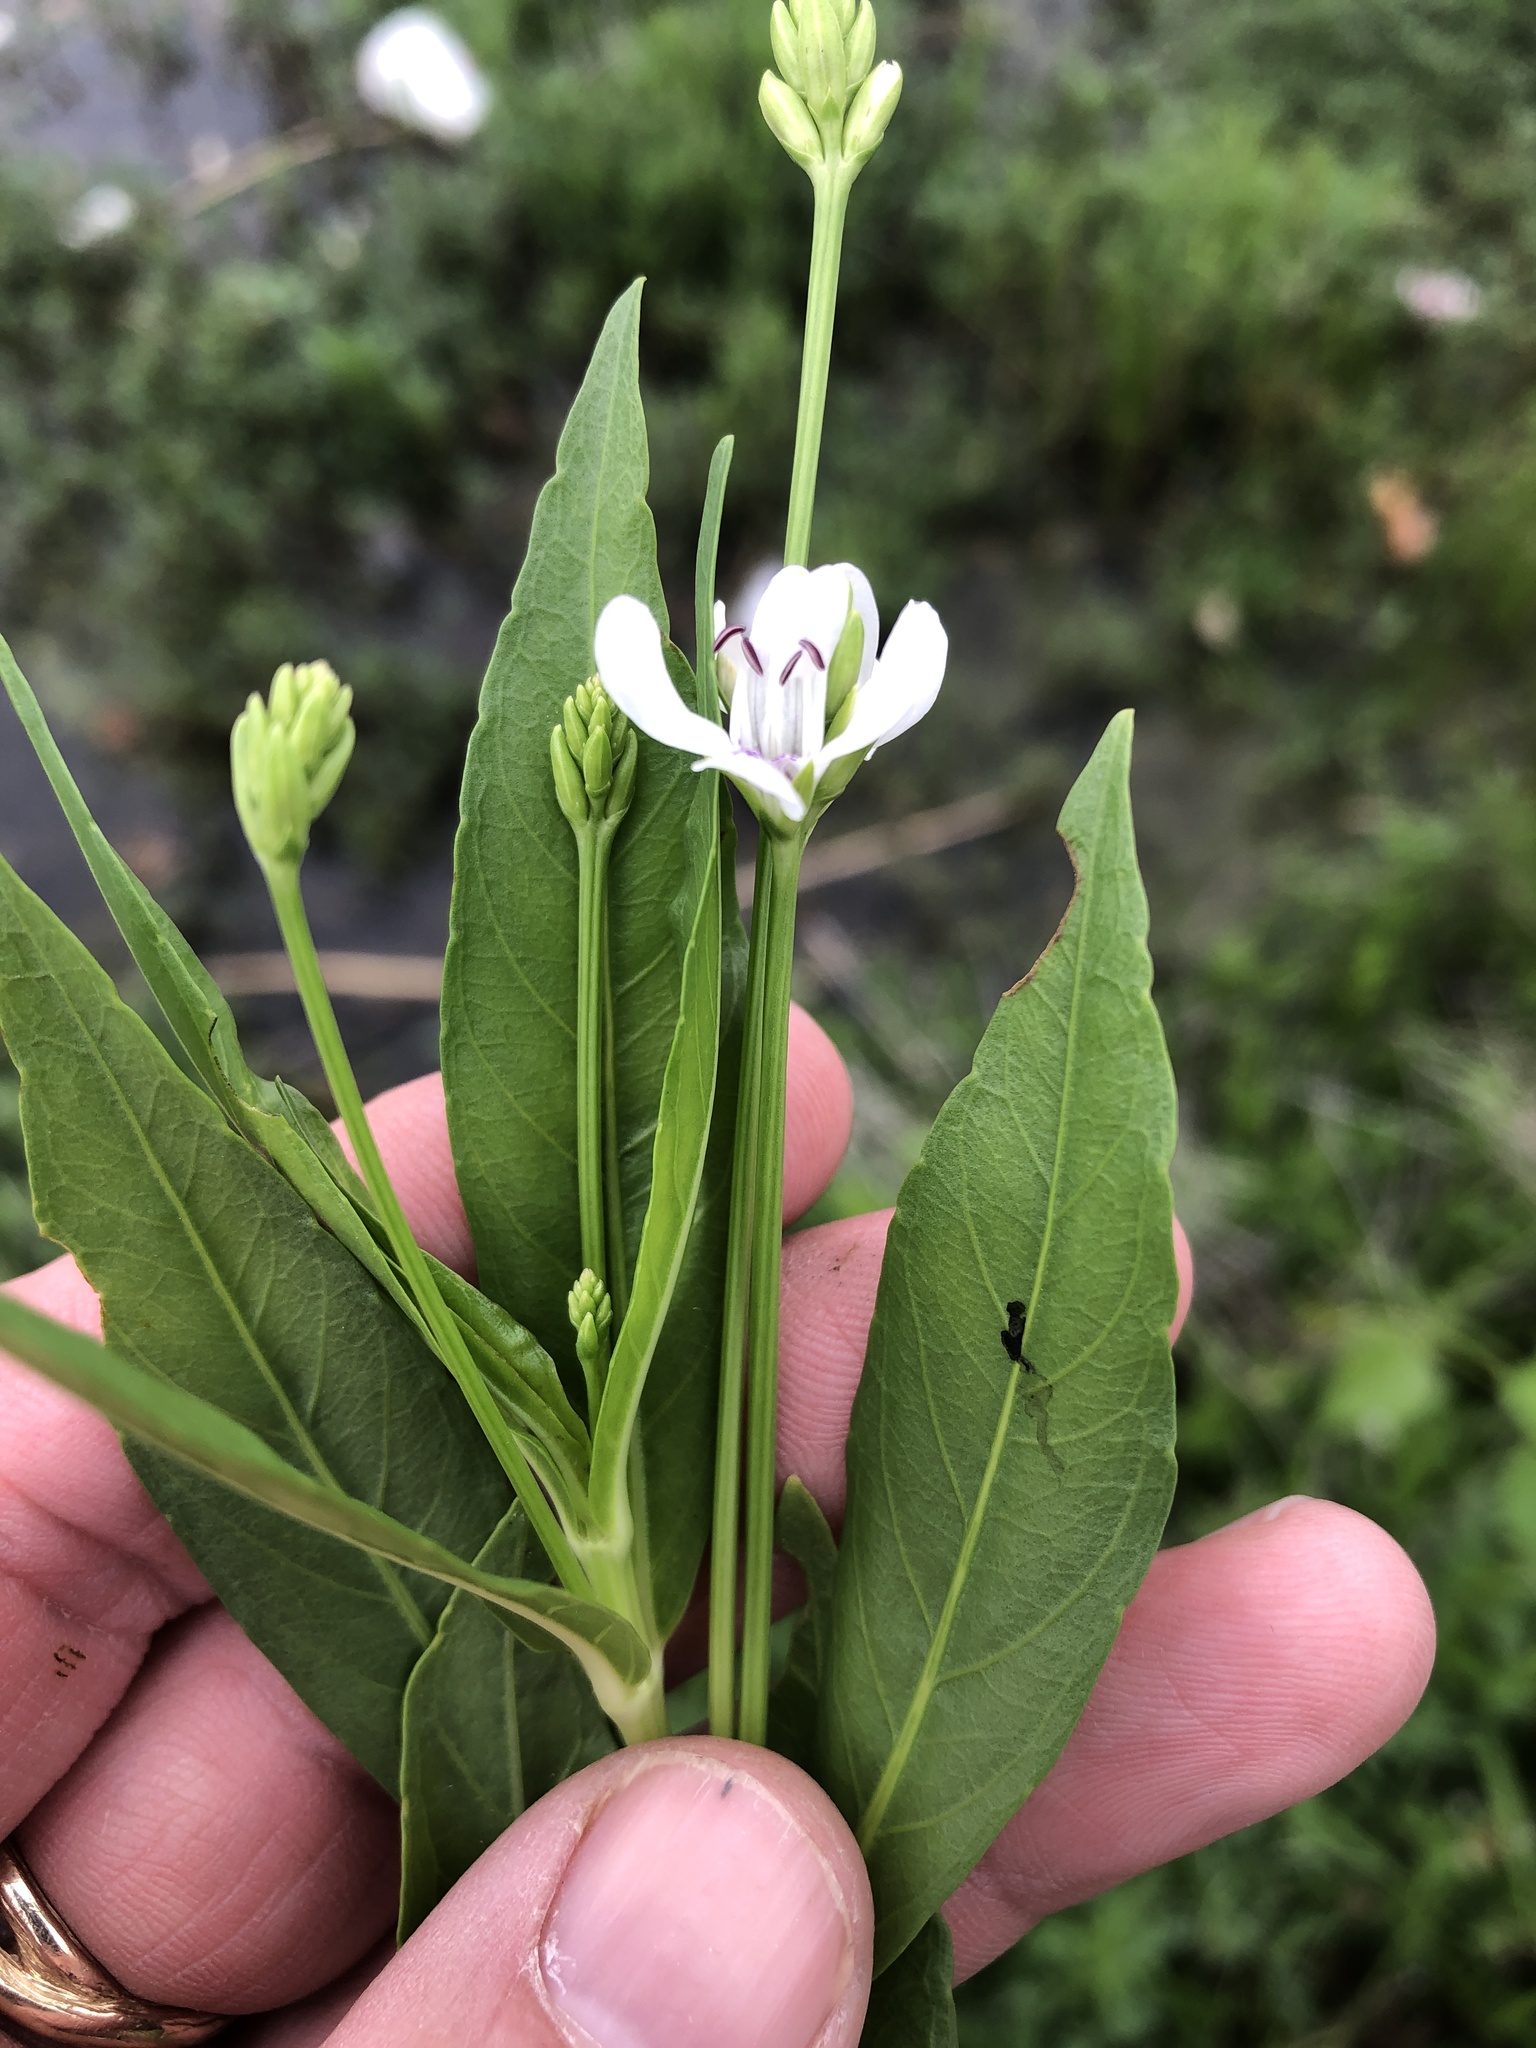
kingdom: Plantae
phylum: Tracheophyta
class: Magnoliopsida
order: Lamiales
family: Acanthaceae
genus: Dianthera
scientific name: Dianthera americana
